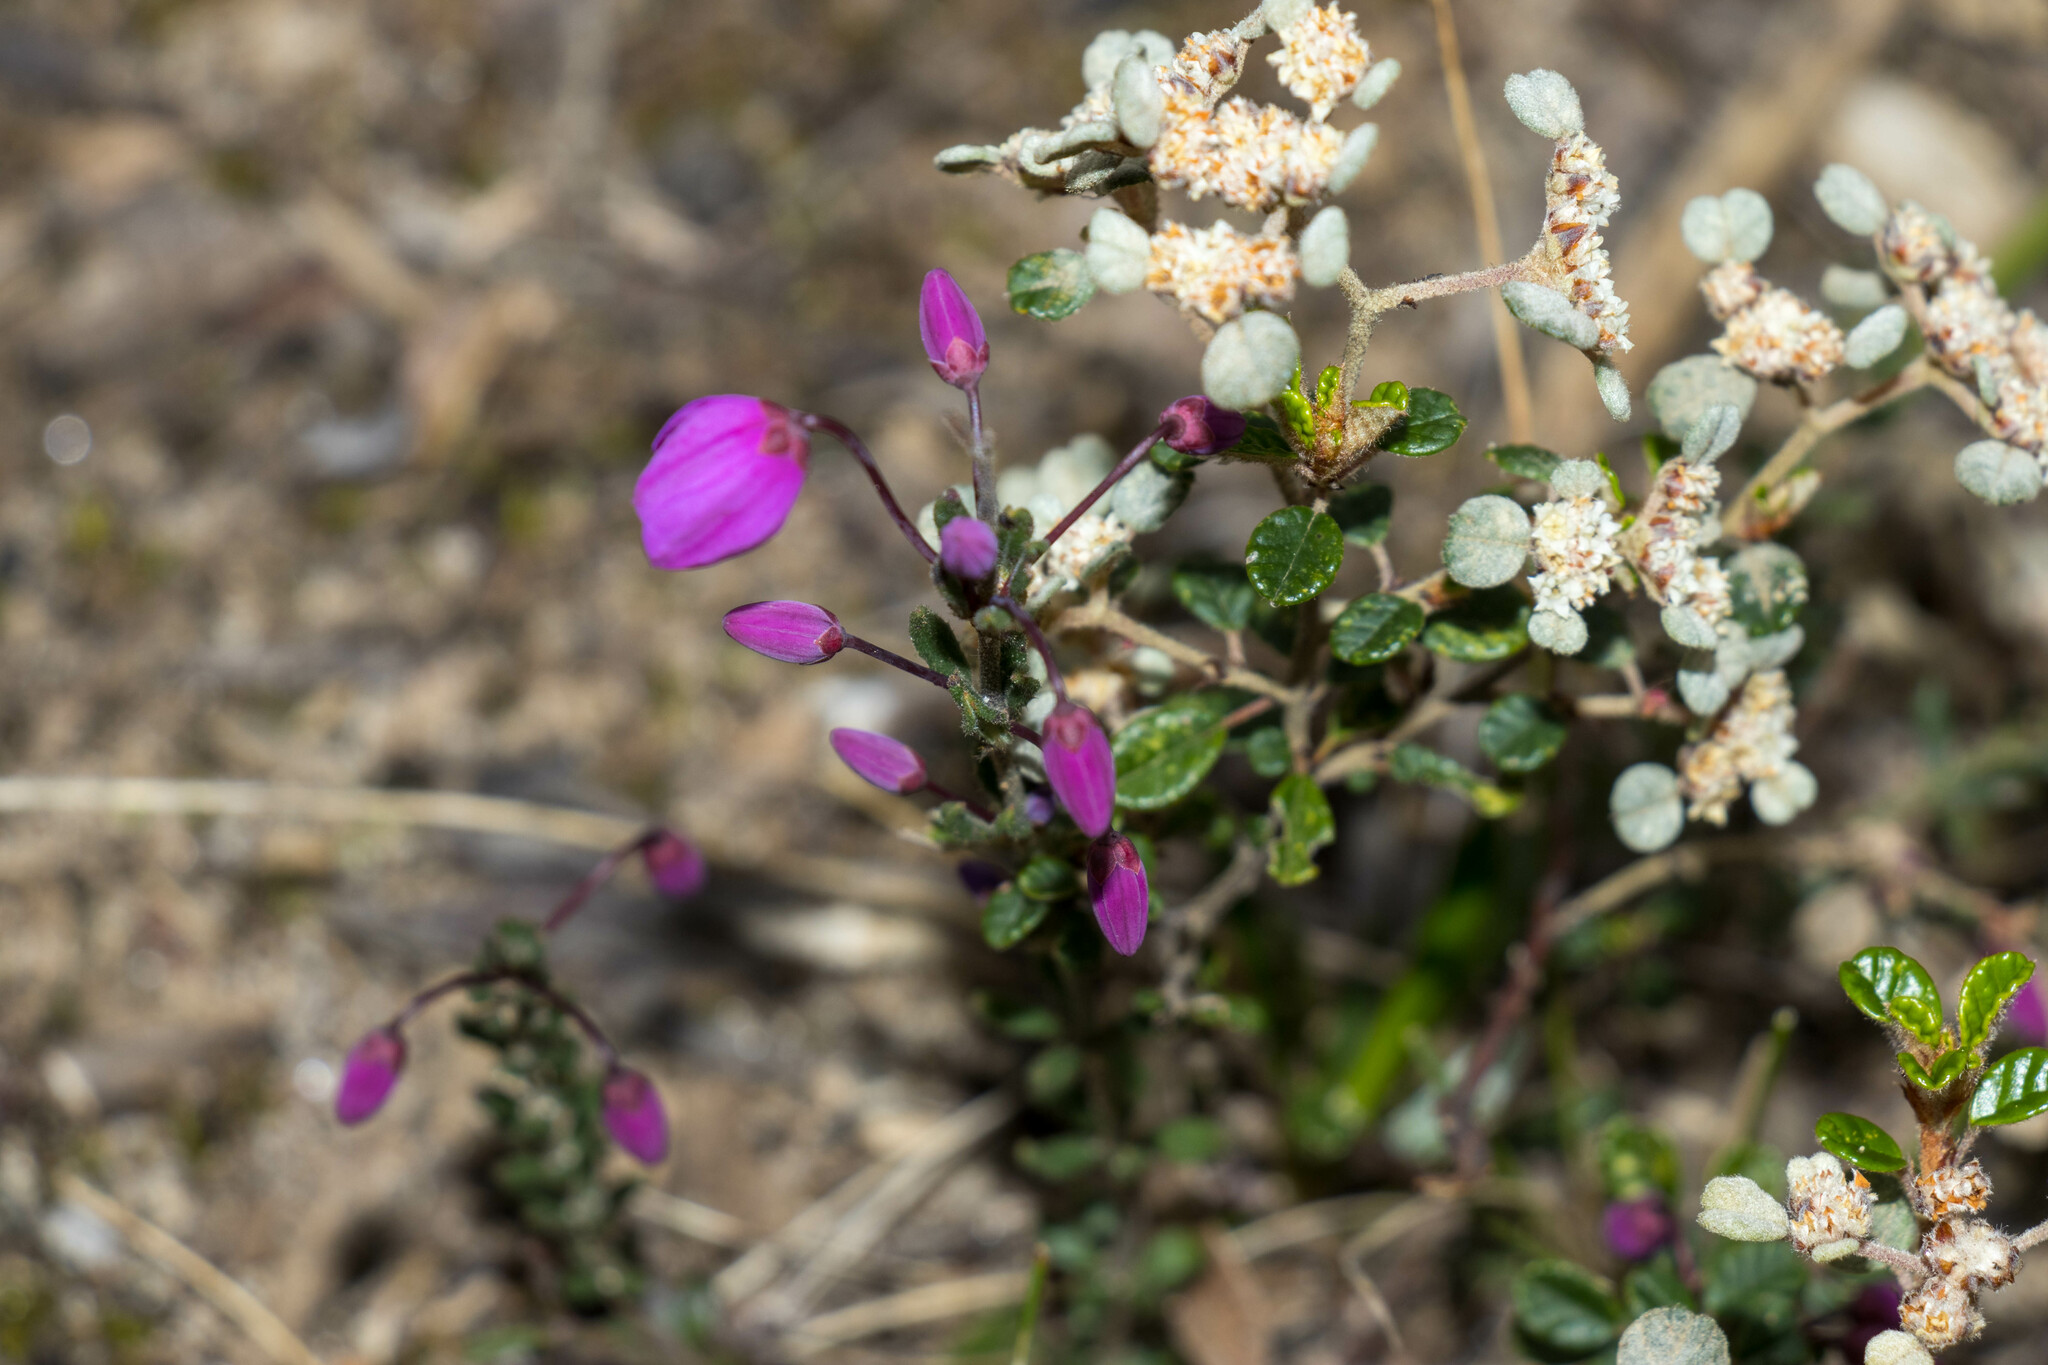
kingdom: Plantae
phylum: Tracheophyta
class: Magnoliopsida
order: Oxalidales
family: Elaeocarpaceae
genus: Tetratheca
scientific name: Tetratheca ciliata
